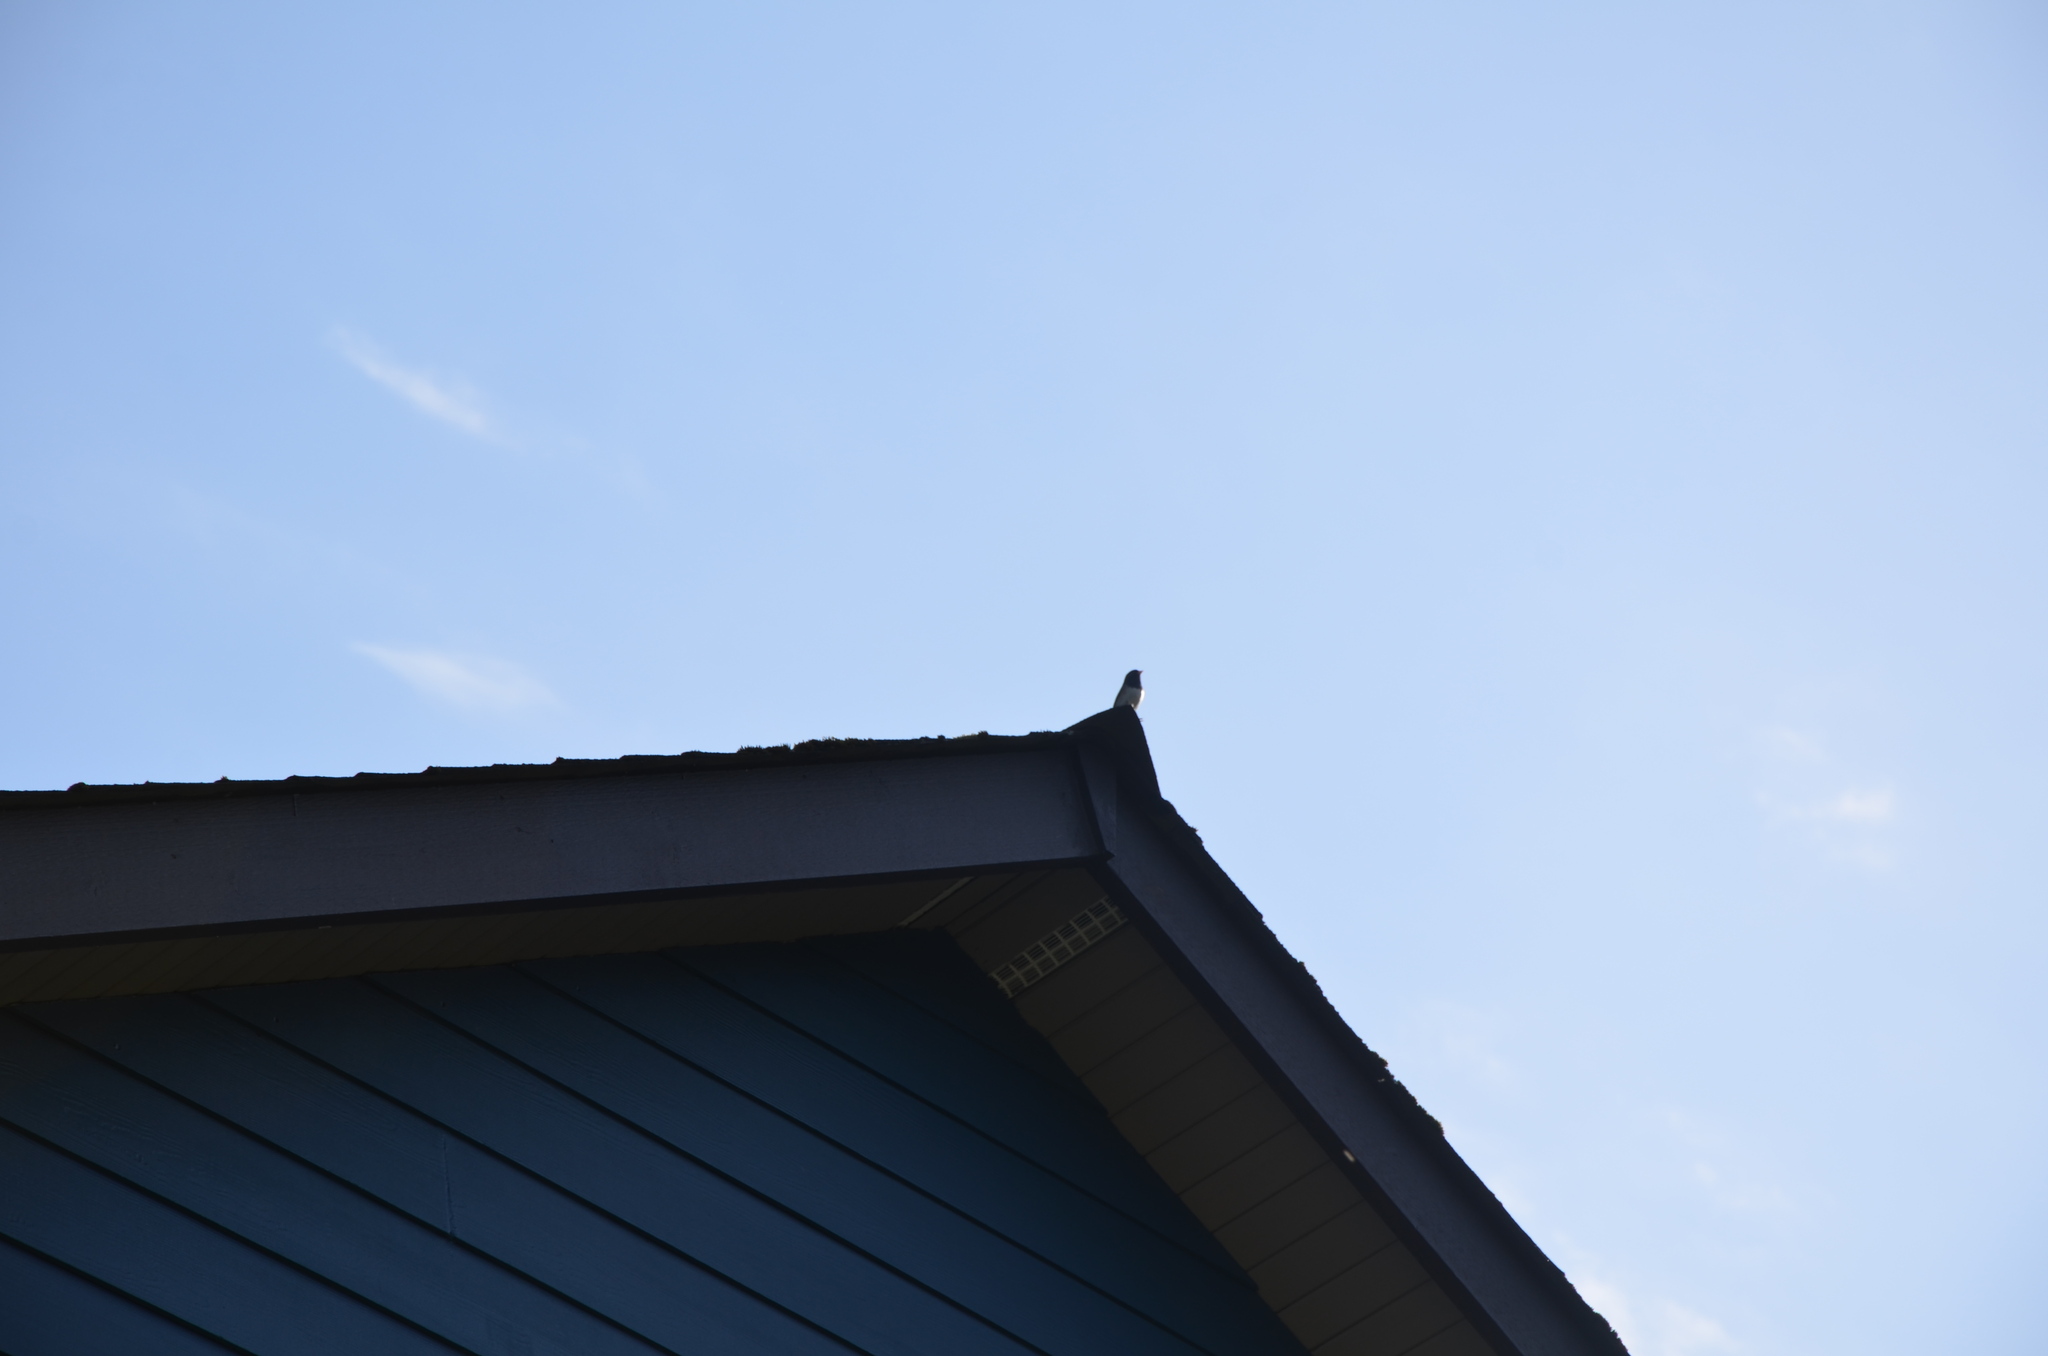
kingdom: Animalia
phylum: Chordata
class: Aves
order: Passeriformes
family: Passerellidae
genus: Junco
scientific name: Junco hyemalis
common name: Dark-eyed junco
